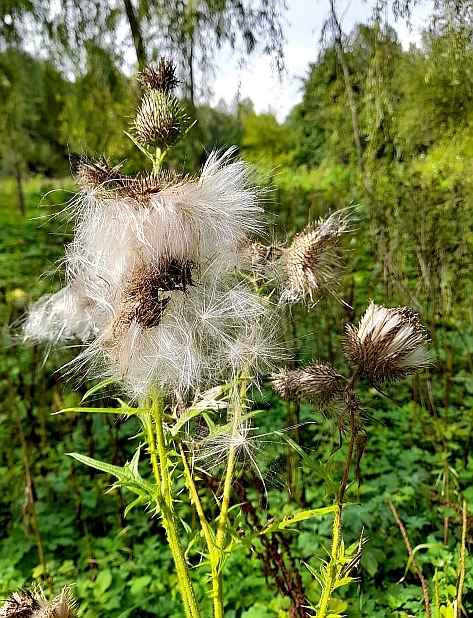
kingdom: Plantae
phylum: Tracheophyta
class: Magnoliopsida
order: Asterales
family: Asteraceae
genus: Cirsium
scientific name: Cirsium vulgare
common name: Bull thistle
